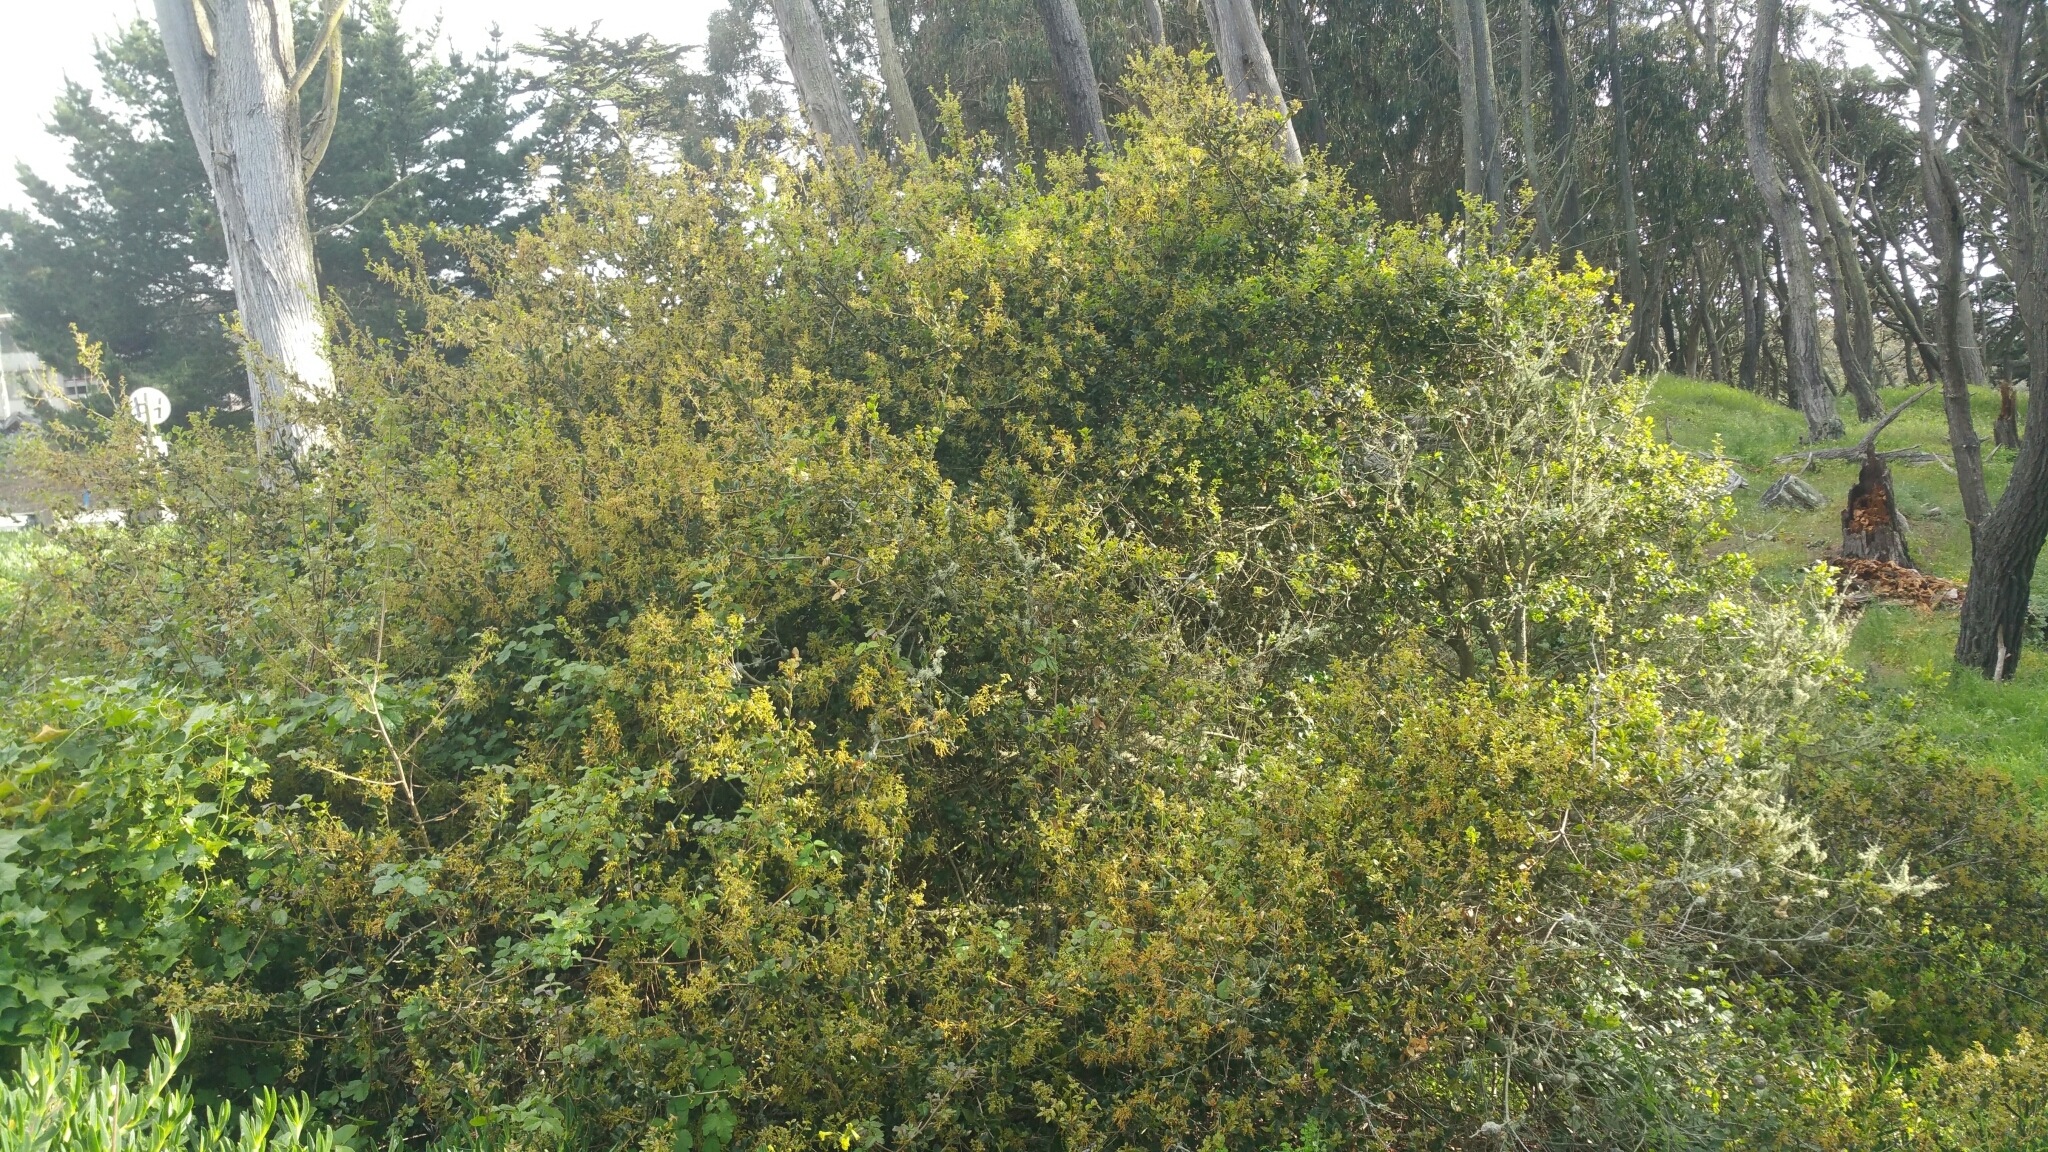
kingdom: Plantae
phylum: Tracheophyta
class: Magnoliopsida
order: Fagales
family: Fagaceae
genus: Quercus
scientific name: Quercus agrifolia
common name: California live oak
